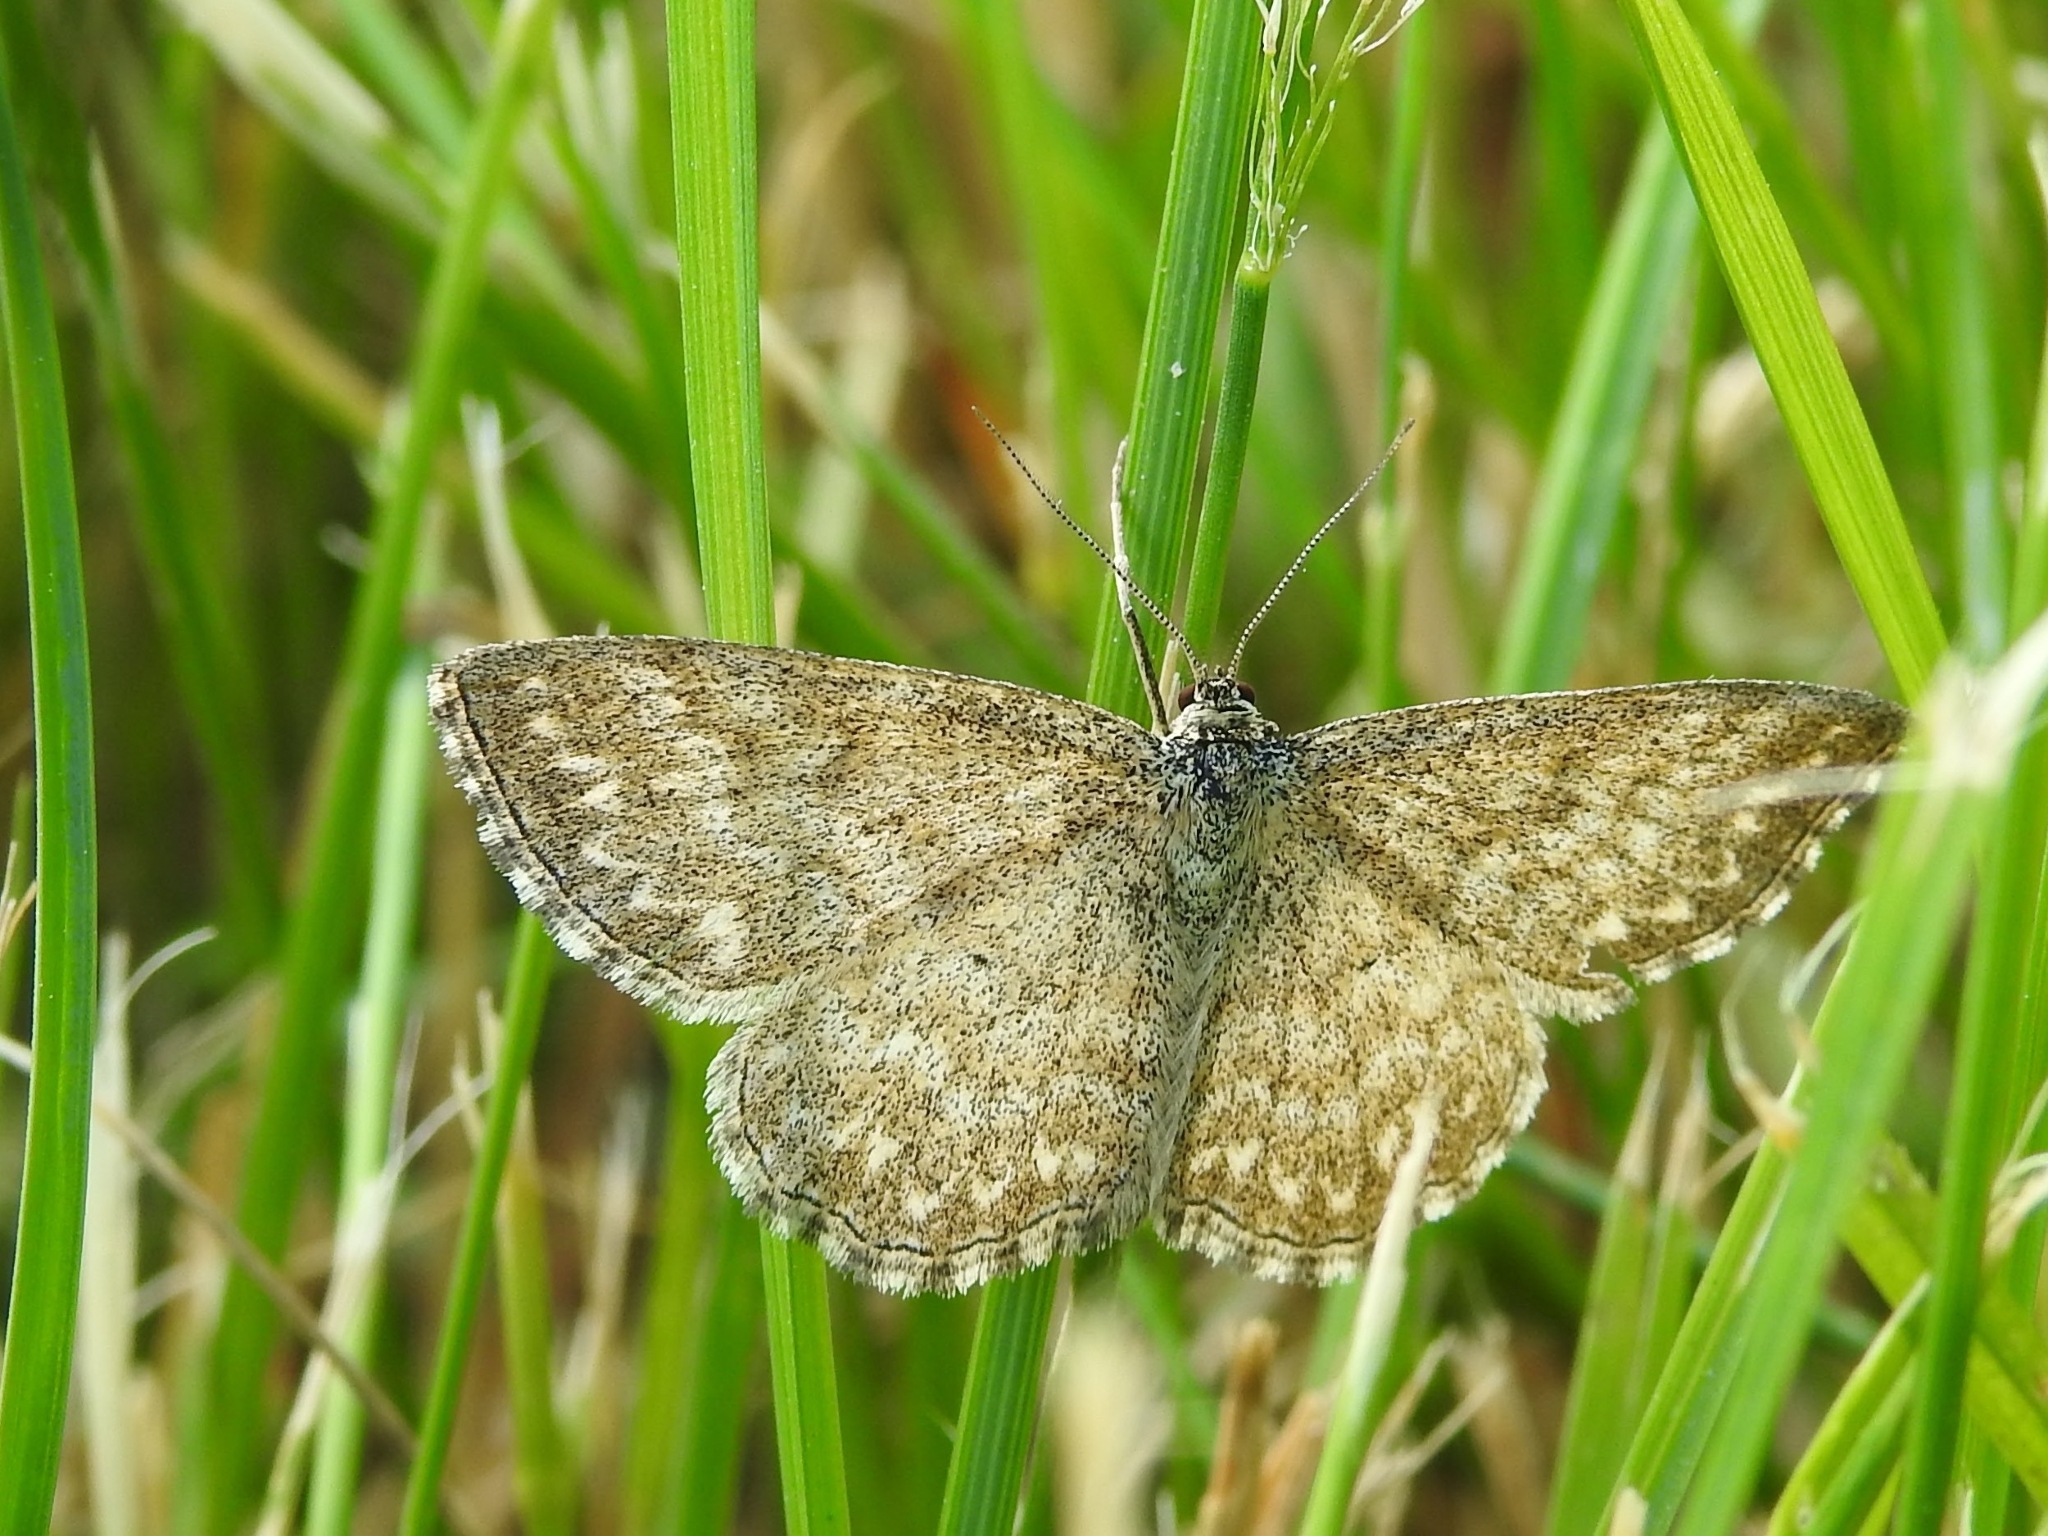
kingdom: Animalia
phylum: Arthropoda
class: Insecta
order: Lepidoptera
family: Geometridae
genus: Scopula
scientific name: Scopula immorata
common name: Lewes wave
